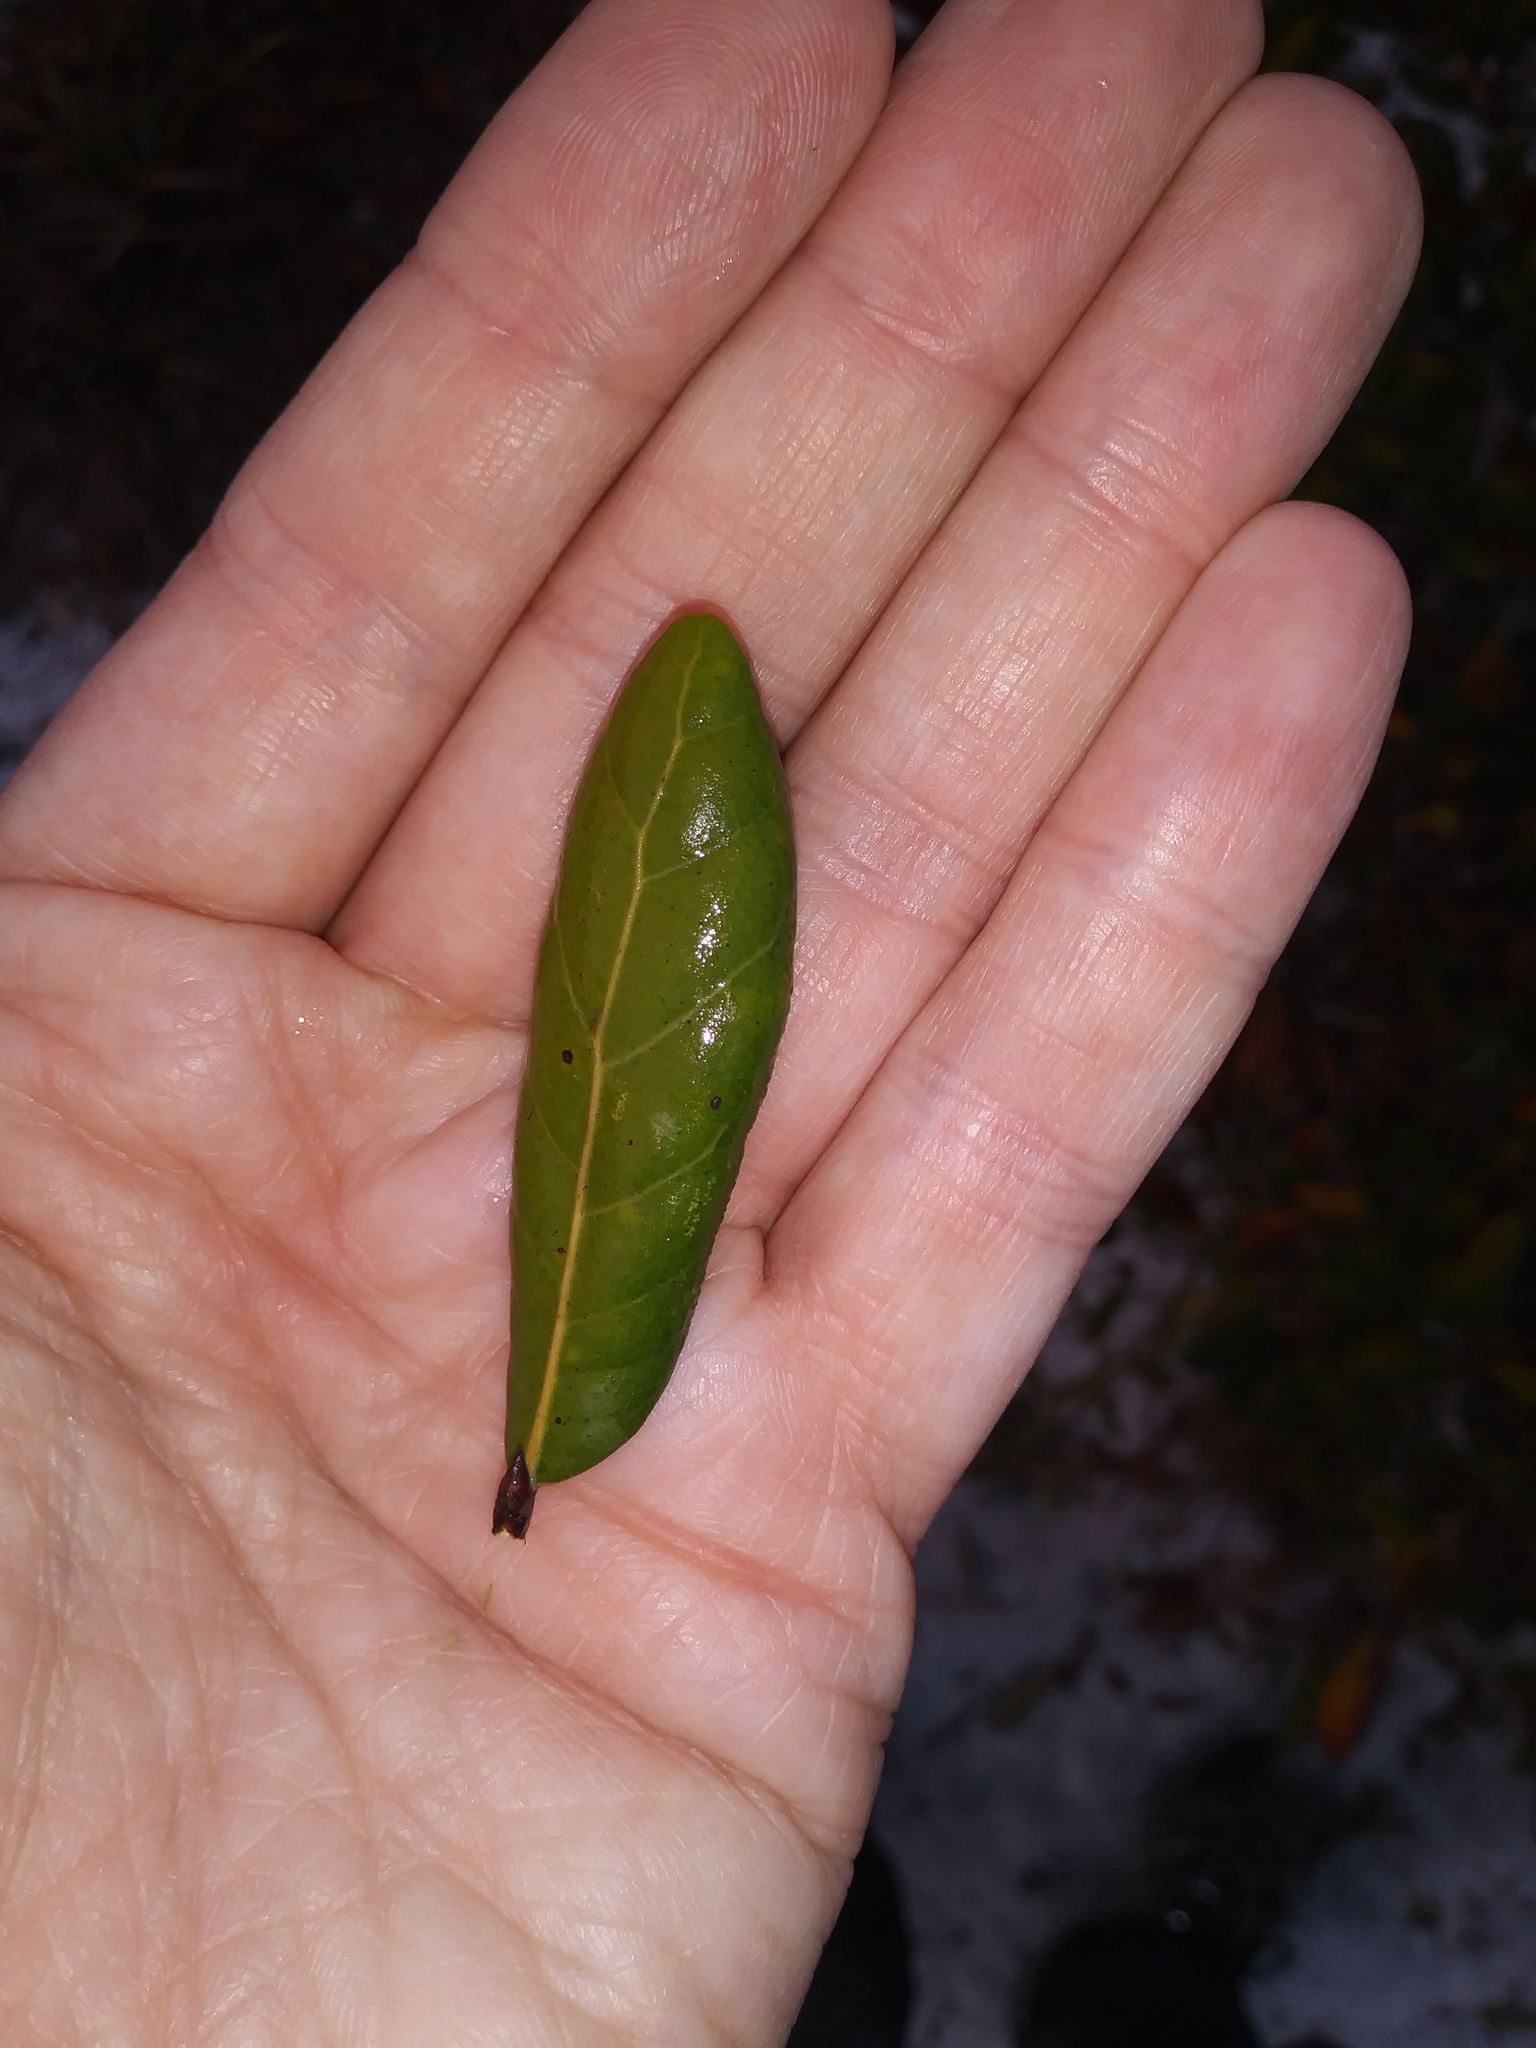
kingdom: Plantae
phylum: Tracheophyta
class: Magnoliopsida
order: Fagales
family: Fagaceae
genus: Quercus
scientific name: Quercus inopina
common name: Sandhill oak
